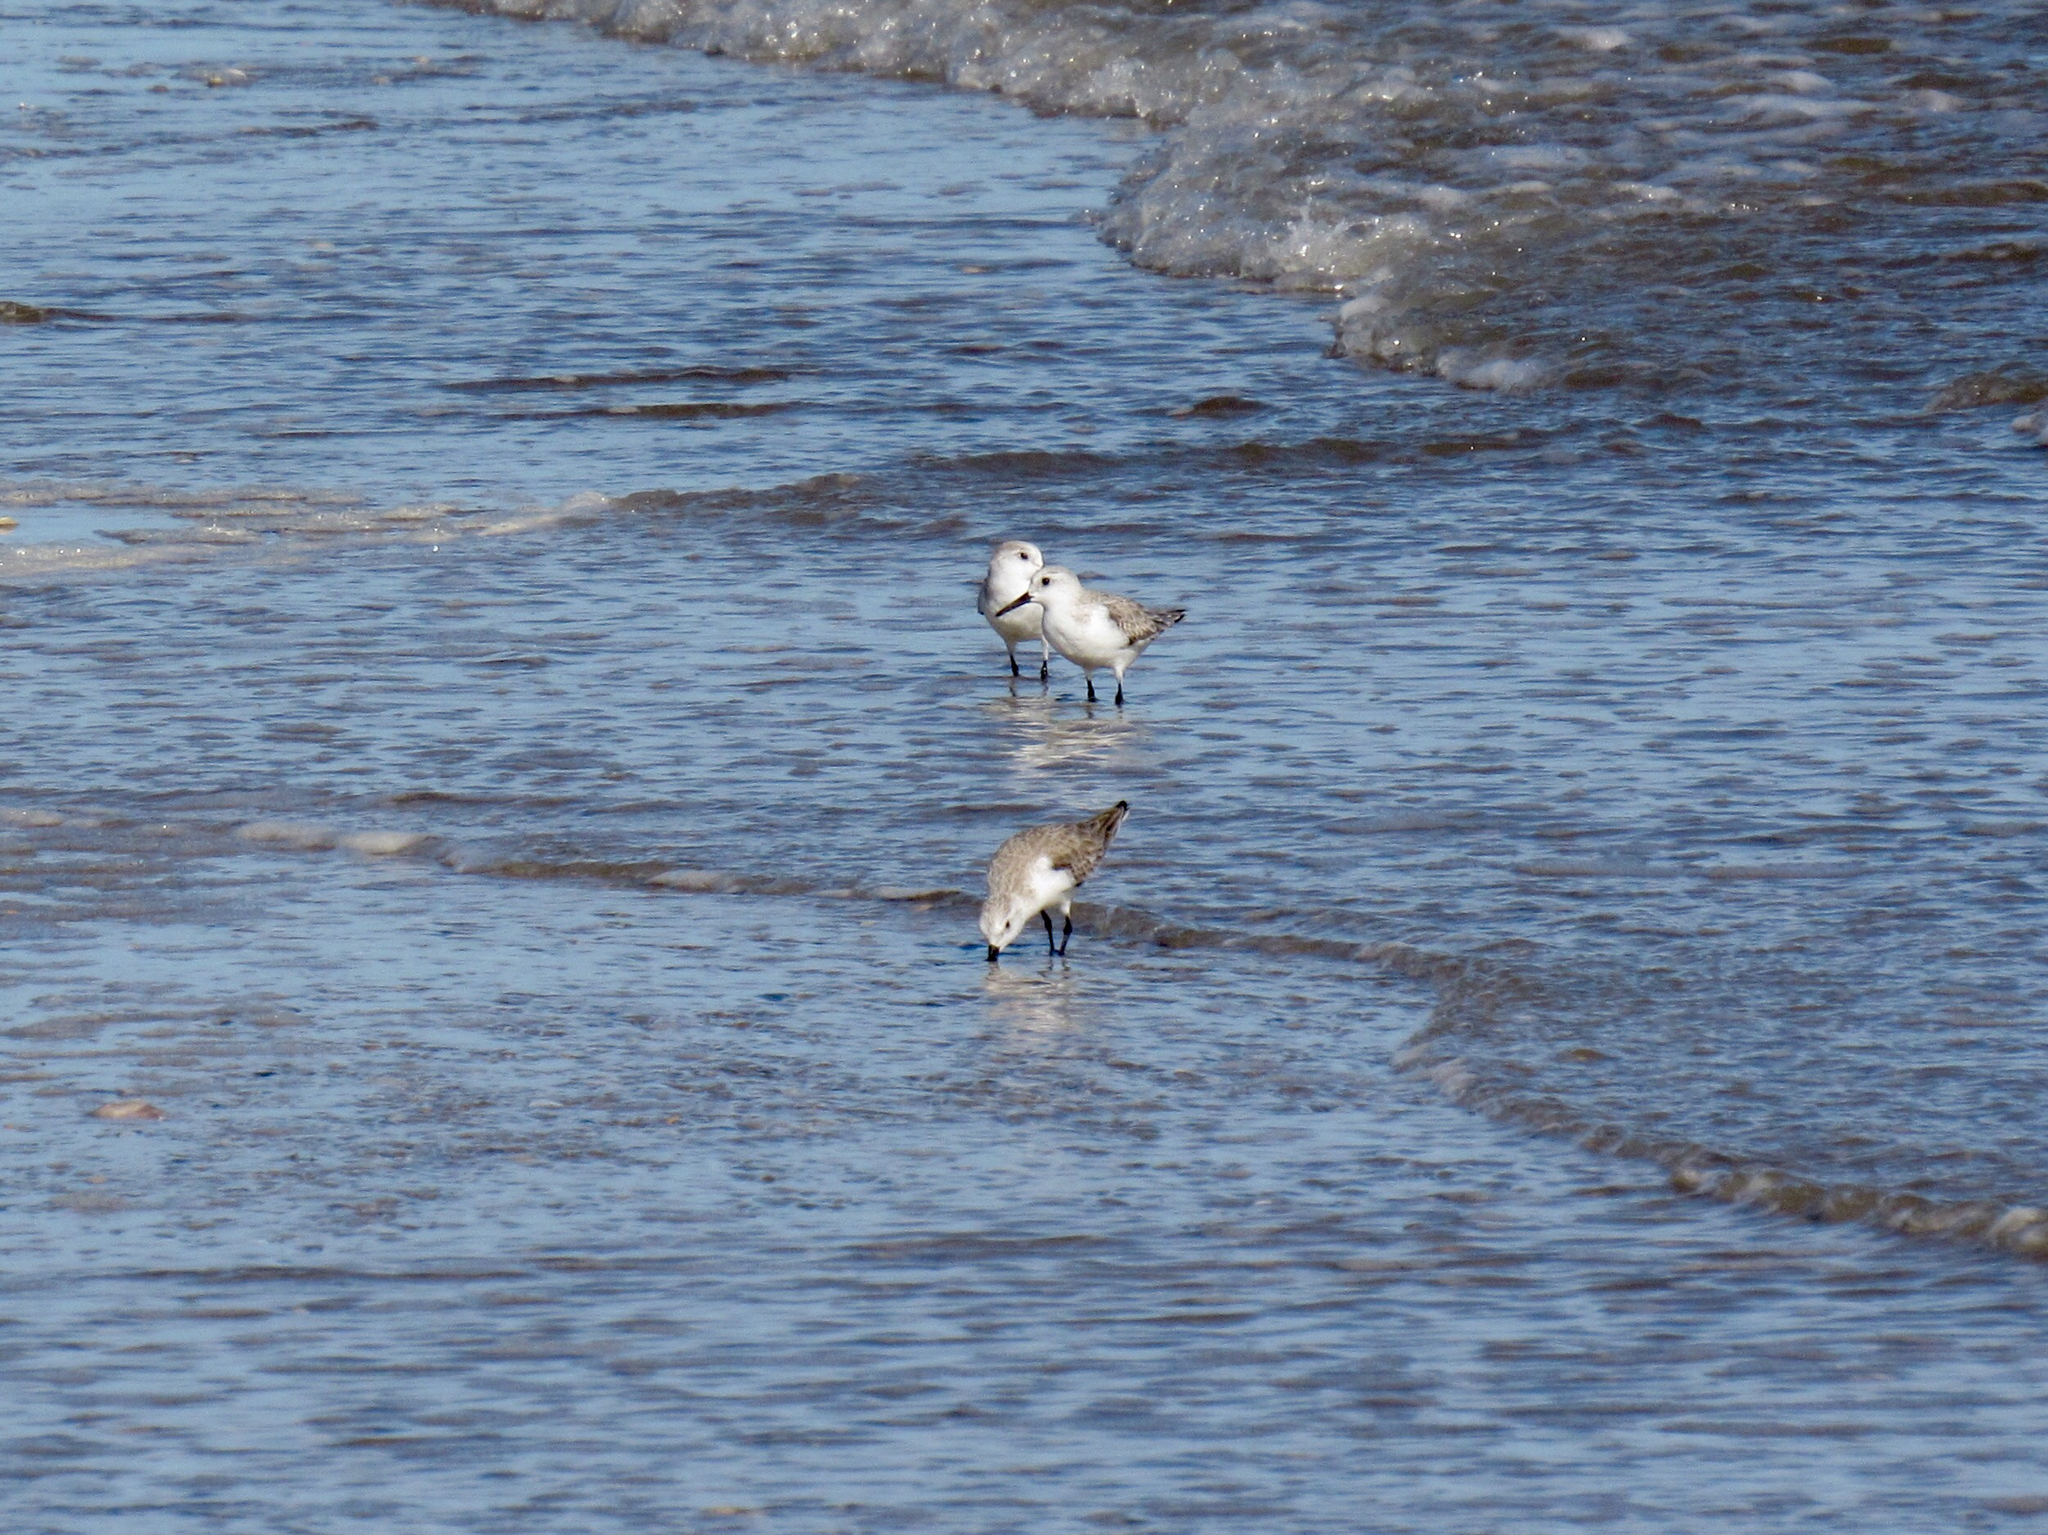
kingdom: Animalia
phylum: Chordata
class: Aves
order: Charadriiformes
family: Scolopacidae
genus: Calidris
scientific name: Calidris alba
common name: Sanderling
